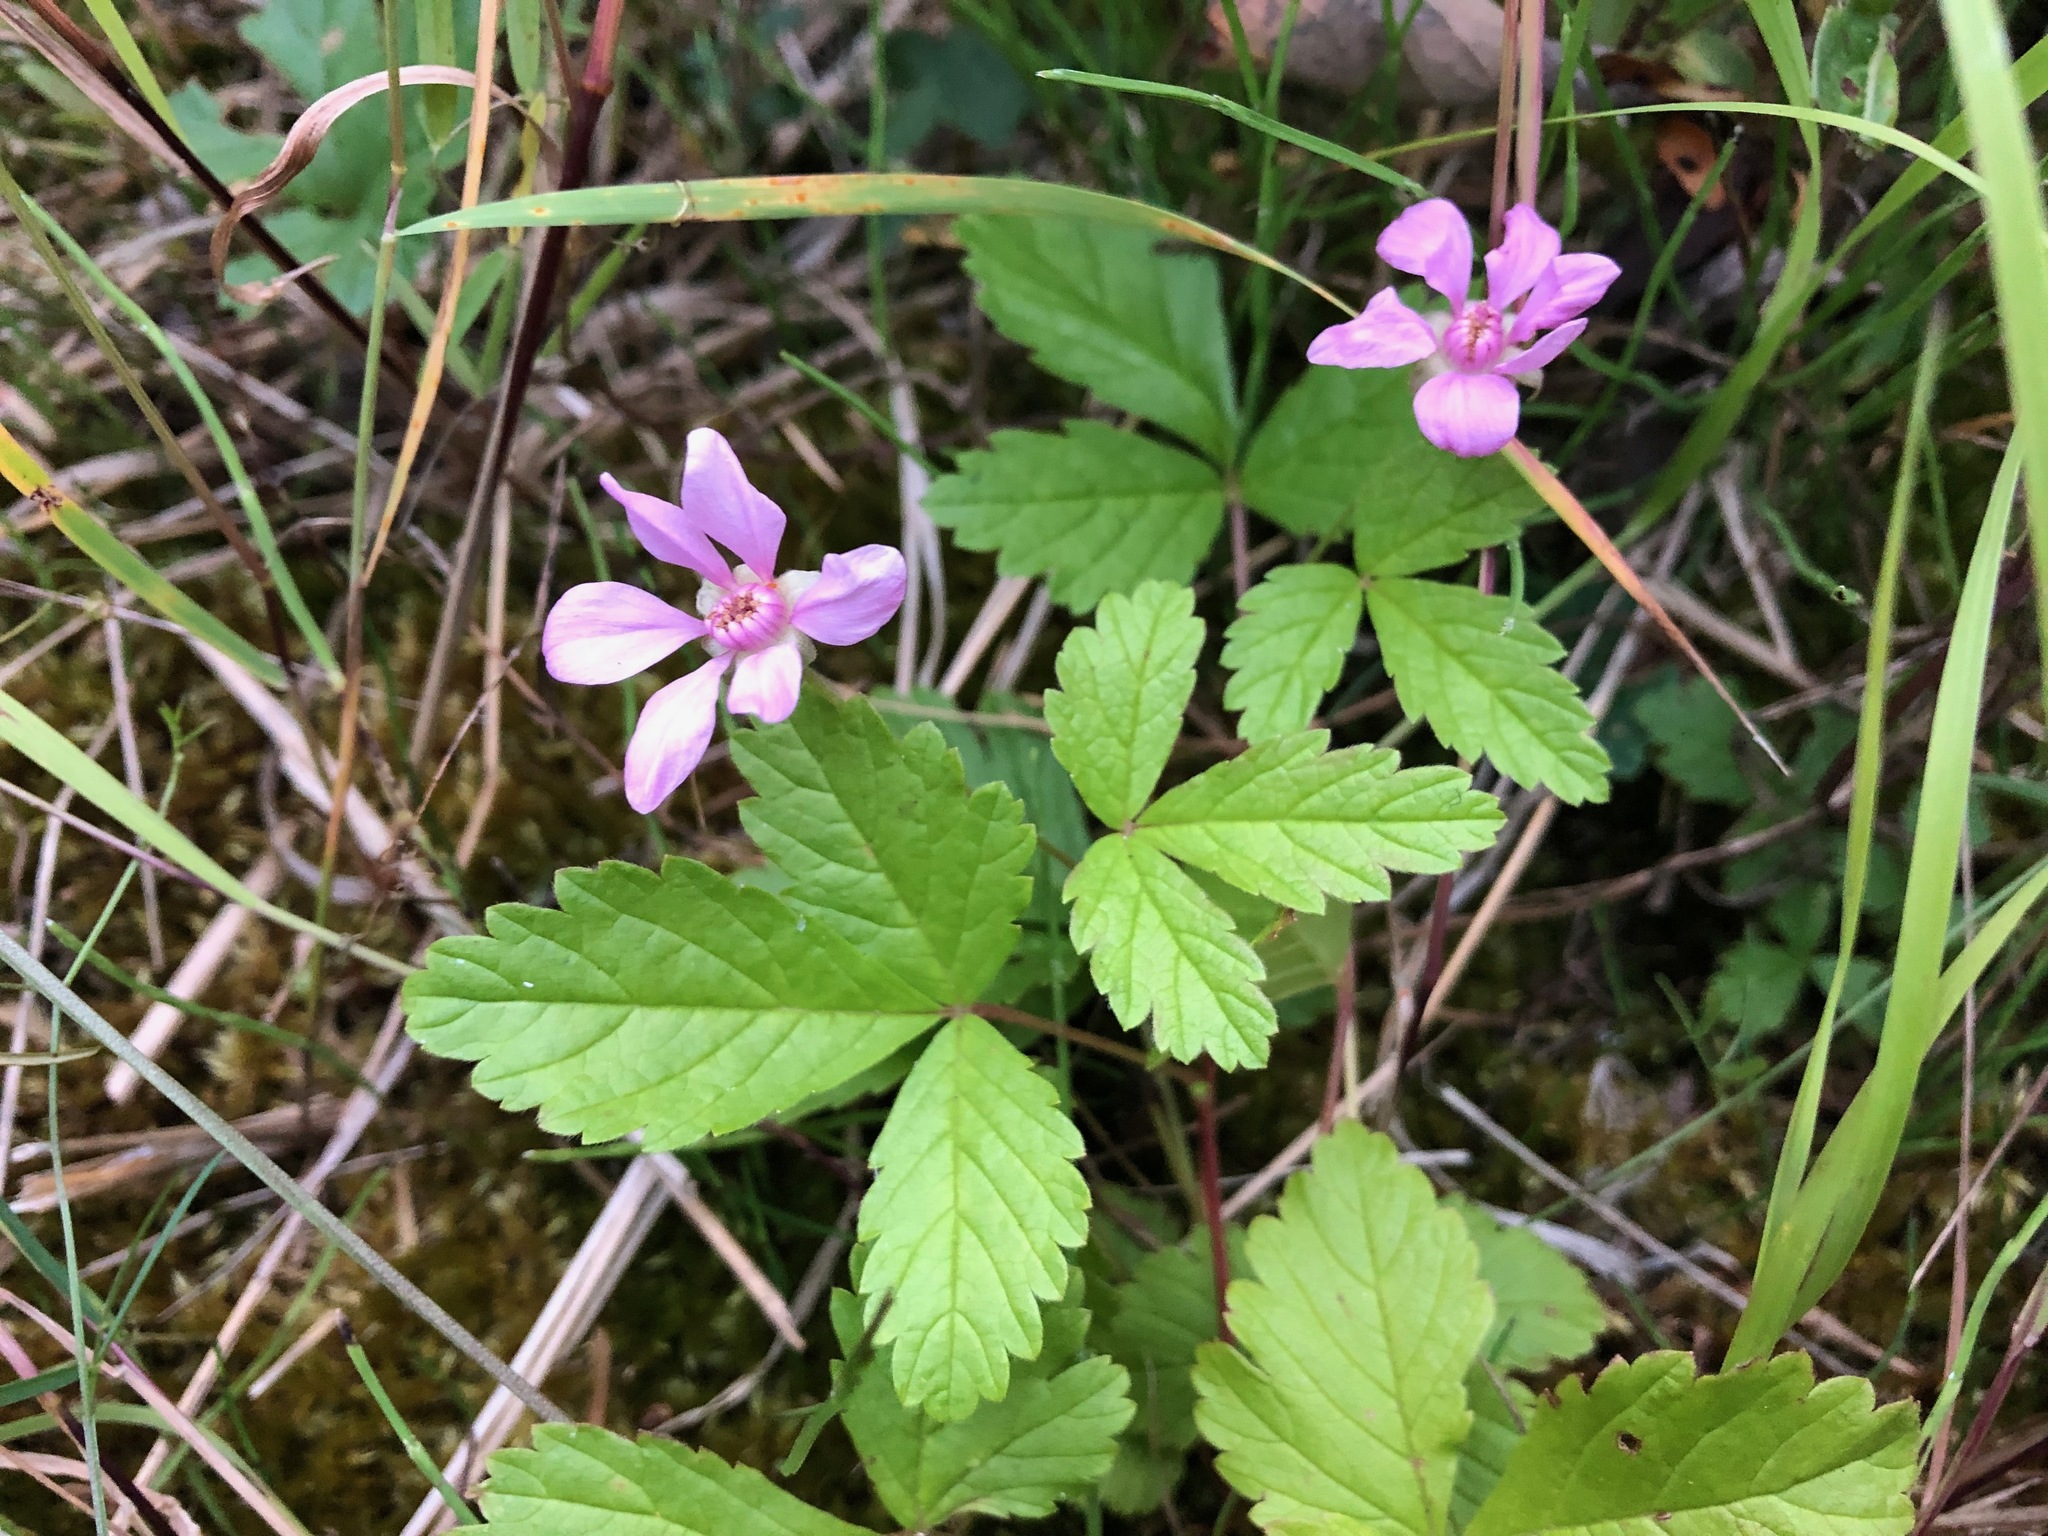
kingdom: Plantae
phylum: Tracheophyta
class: Magnoliopsida
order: Rosales
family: Rosaceae
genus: Rubus
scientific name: Rubus arcticus
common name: Arctic bramble
